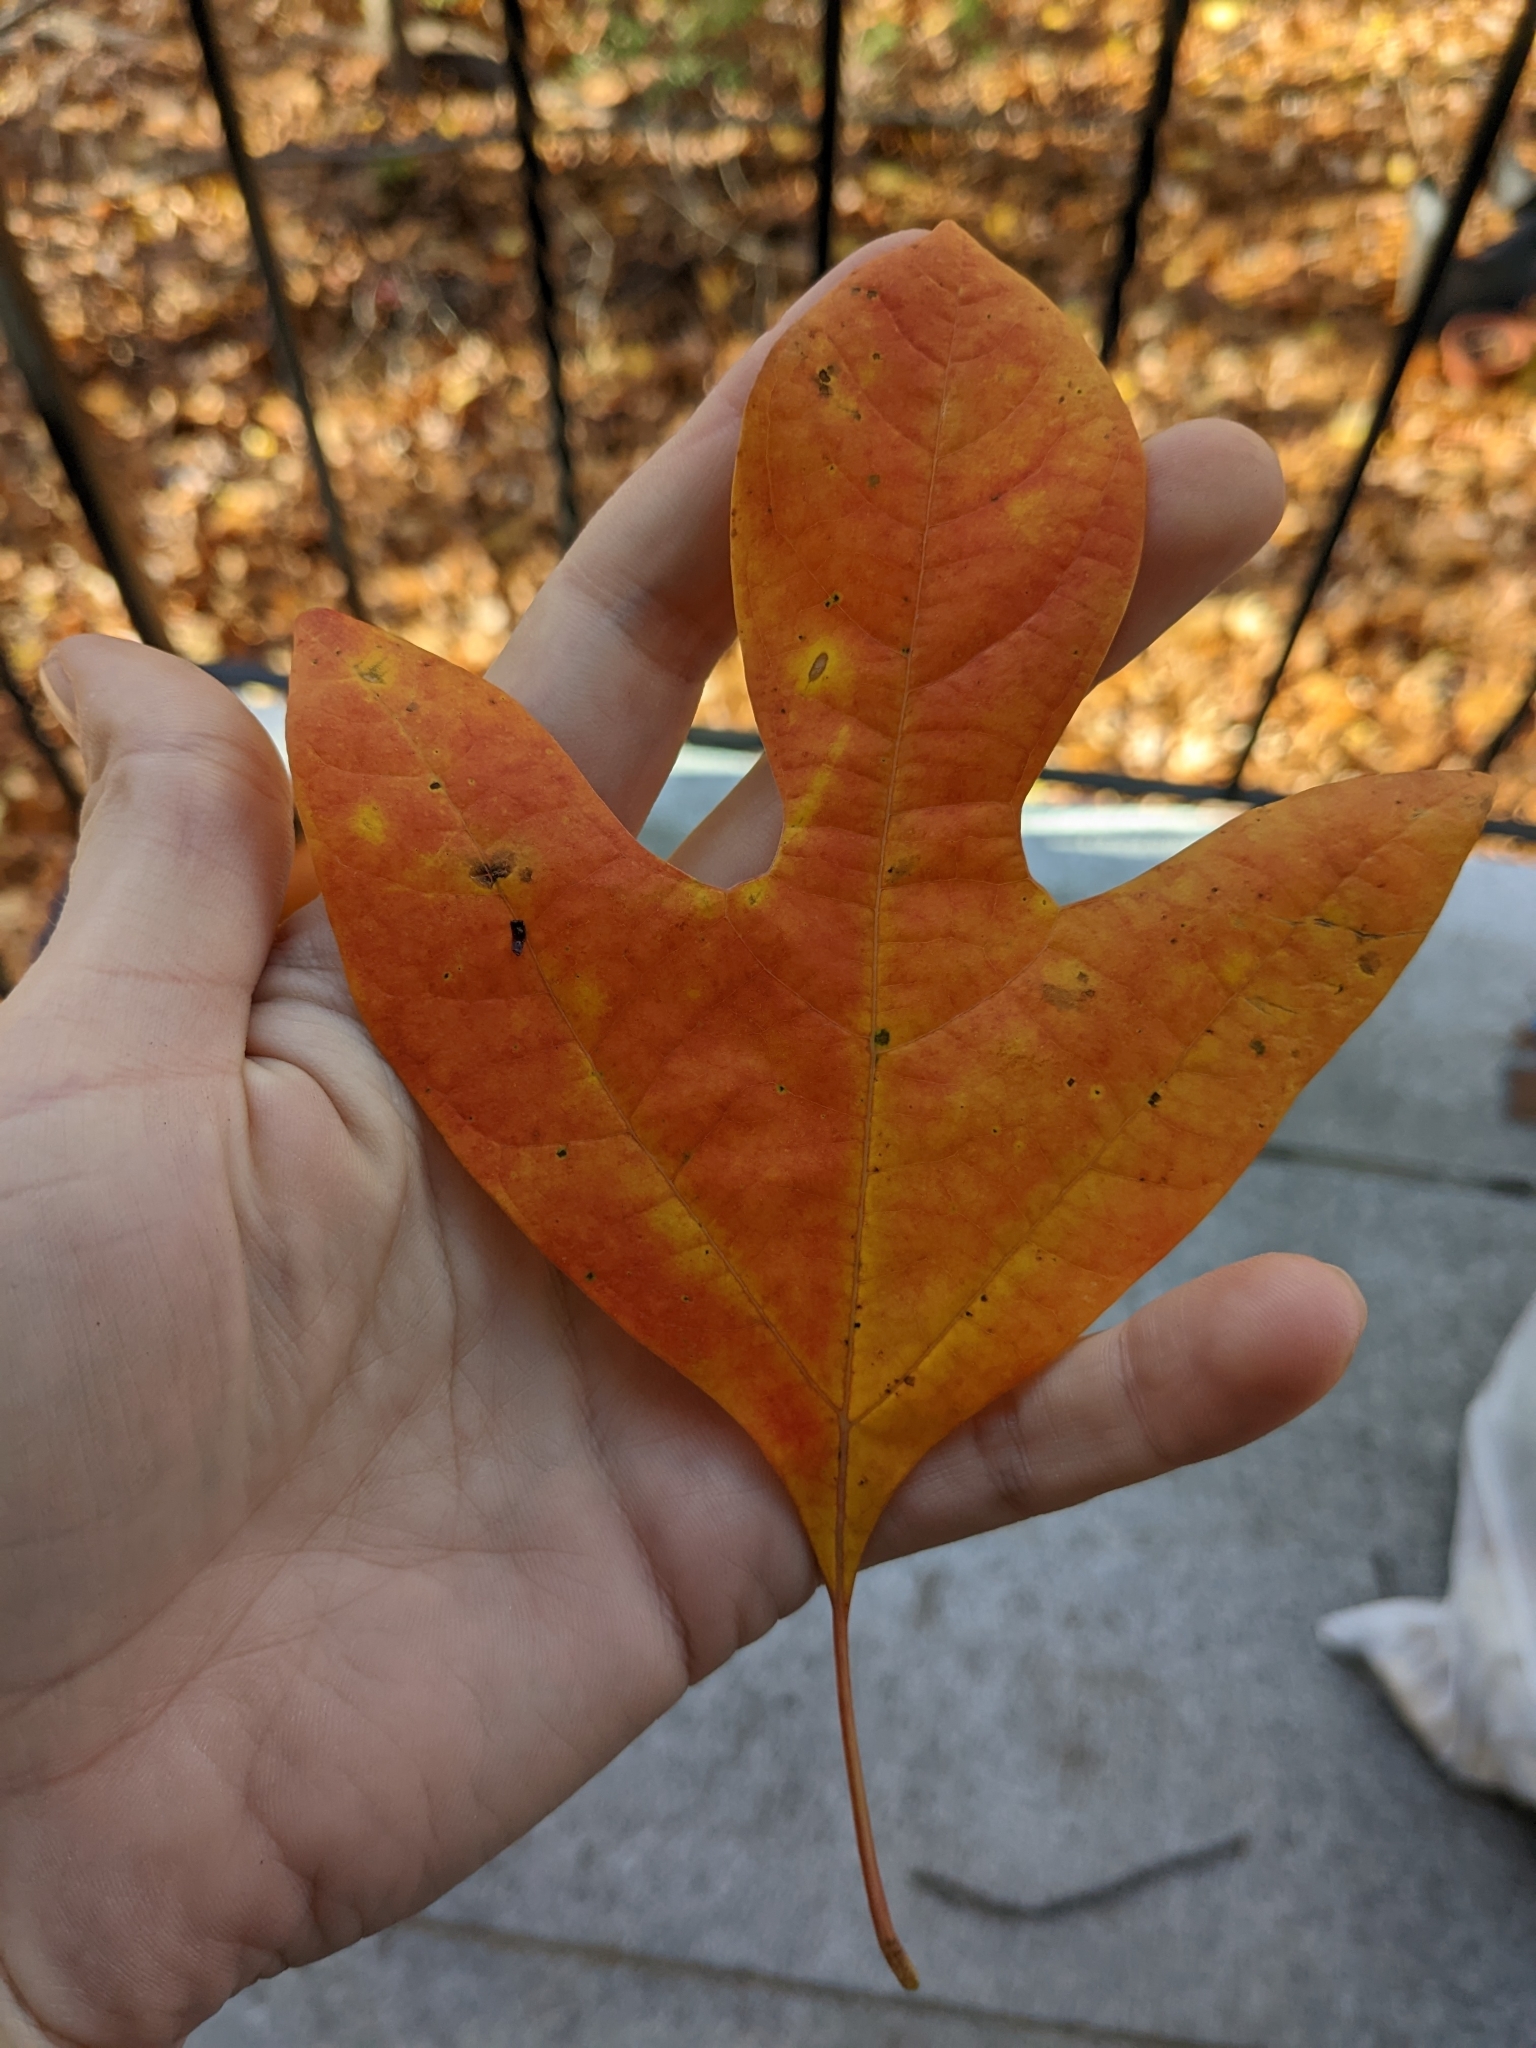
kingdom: Plantae
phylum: Tracheophyta
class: Magnoliopsida
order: Laurales
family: Lauraceae
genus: Sassafras
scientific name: Sassafras albidum
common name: Sassafras
